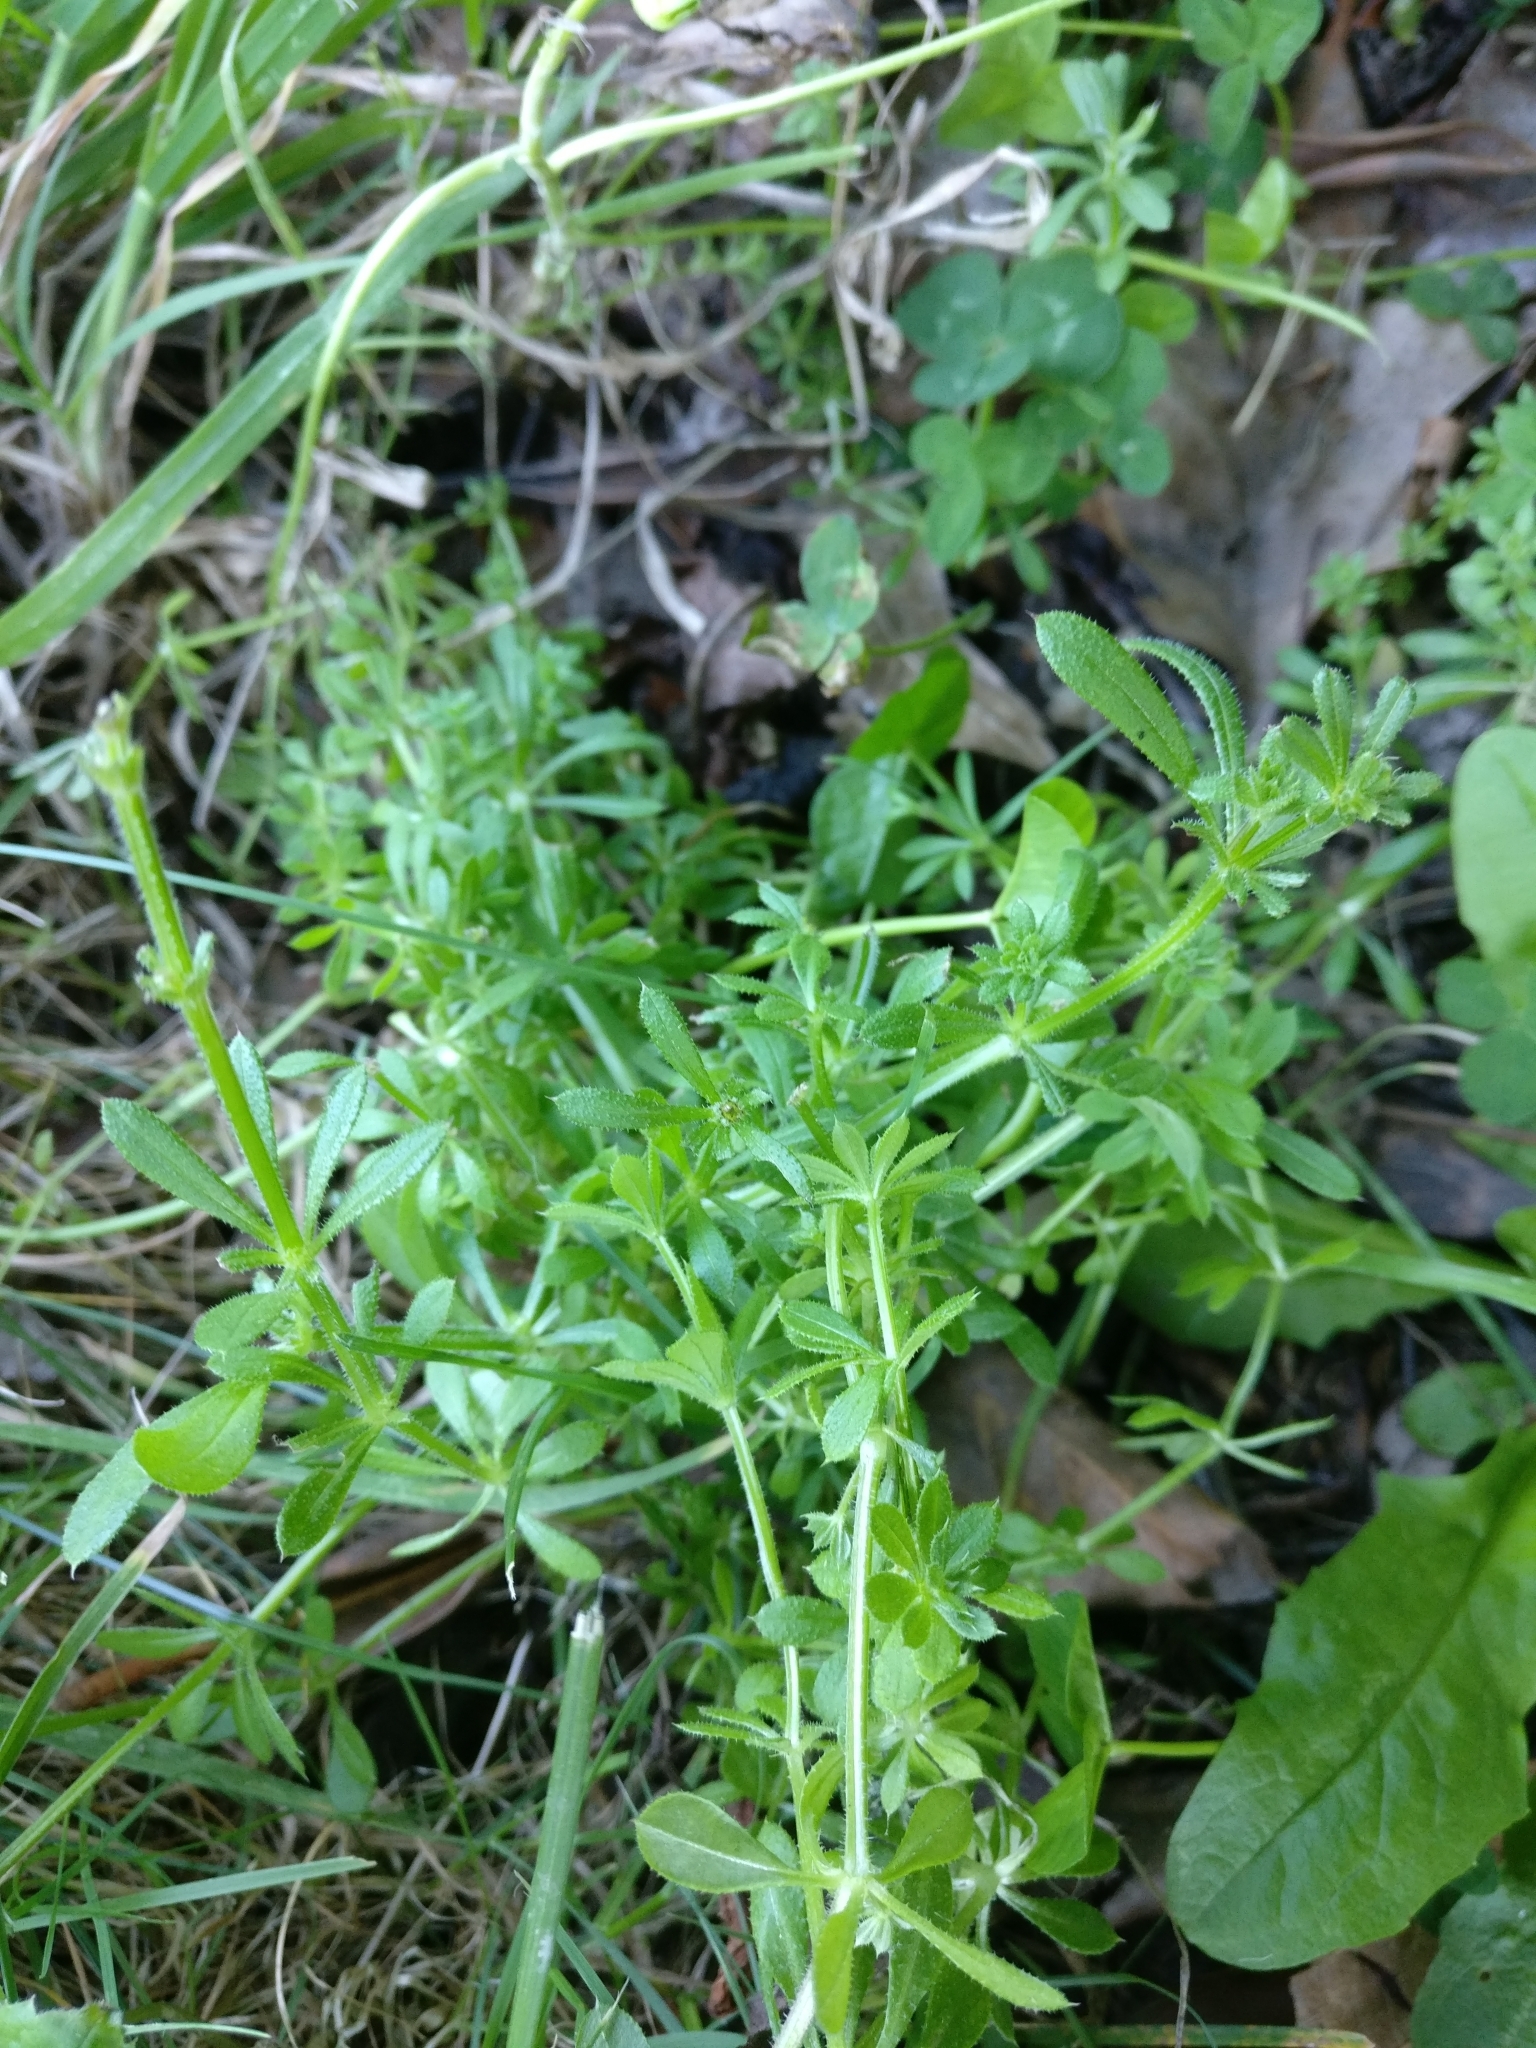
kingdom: Plantae
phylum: Tracheophyta
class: Magnoliopsida
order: Gentianales
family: Rubiaceae
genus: Galium
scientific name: Galium aparine
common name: Cleavers
